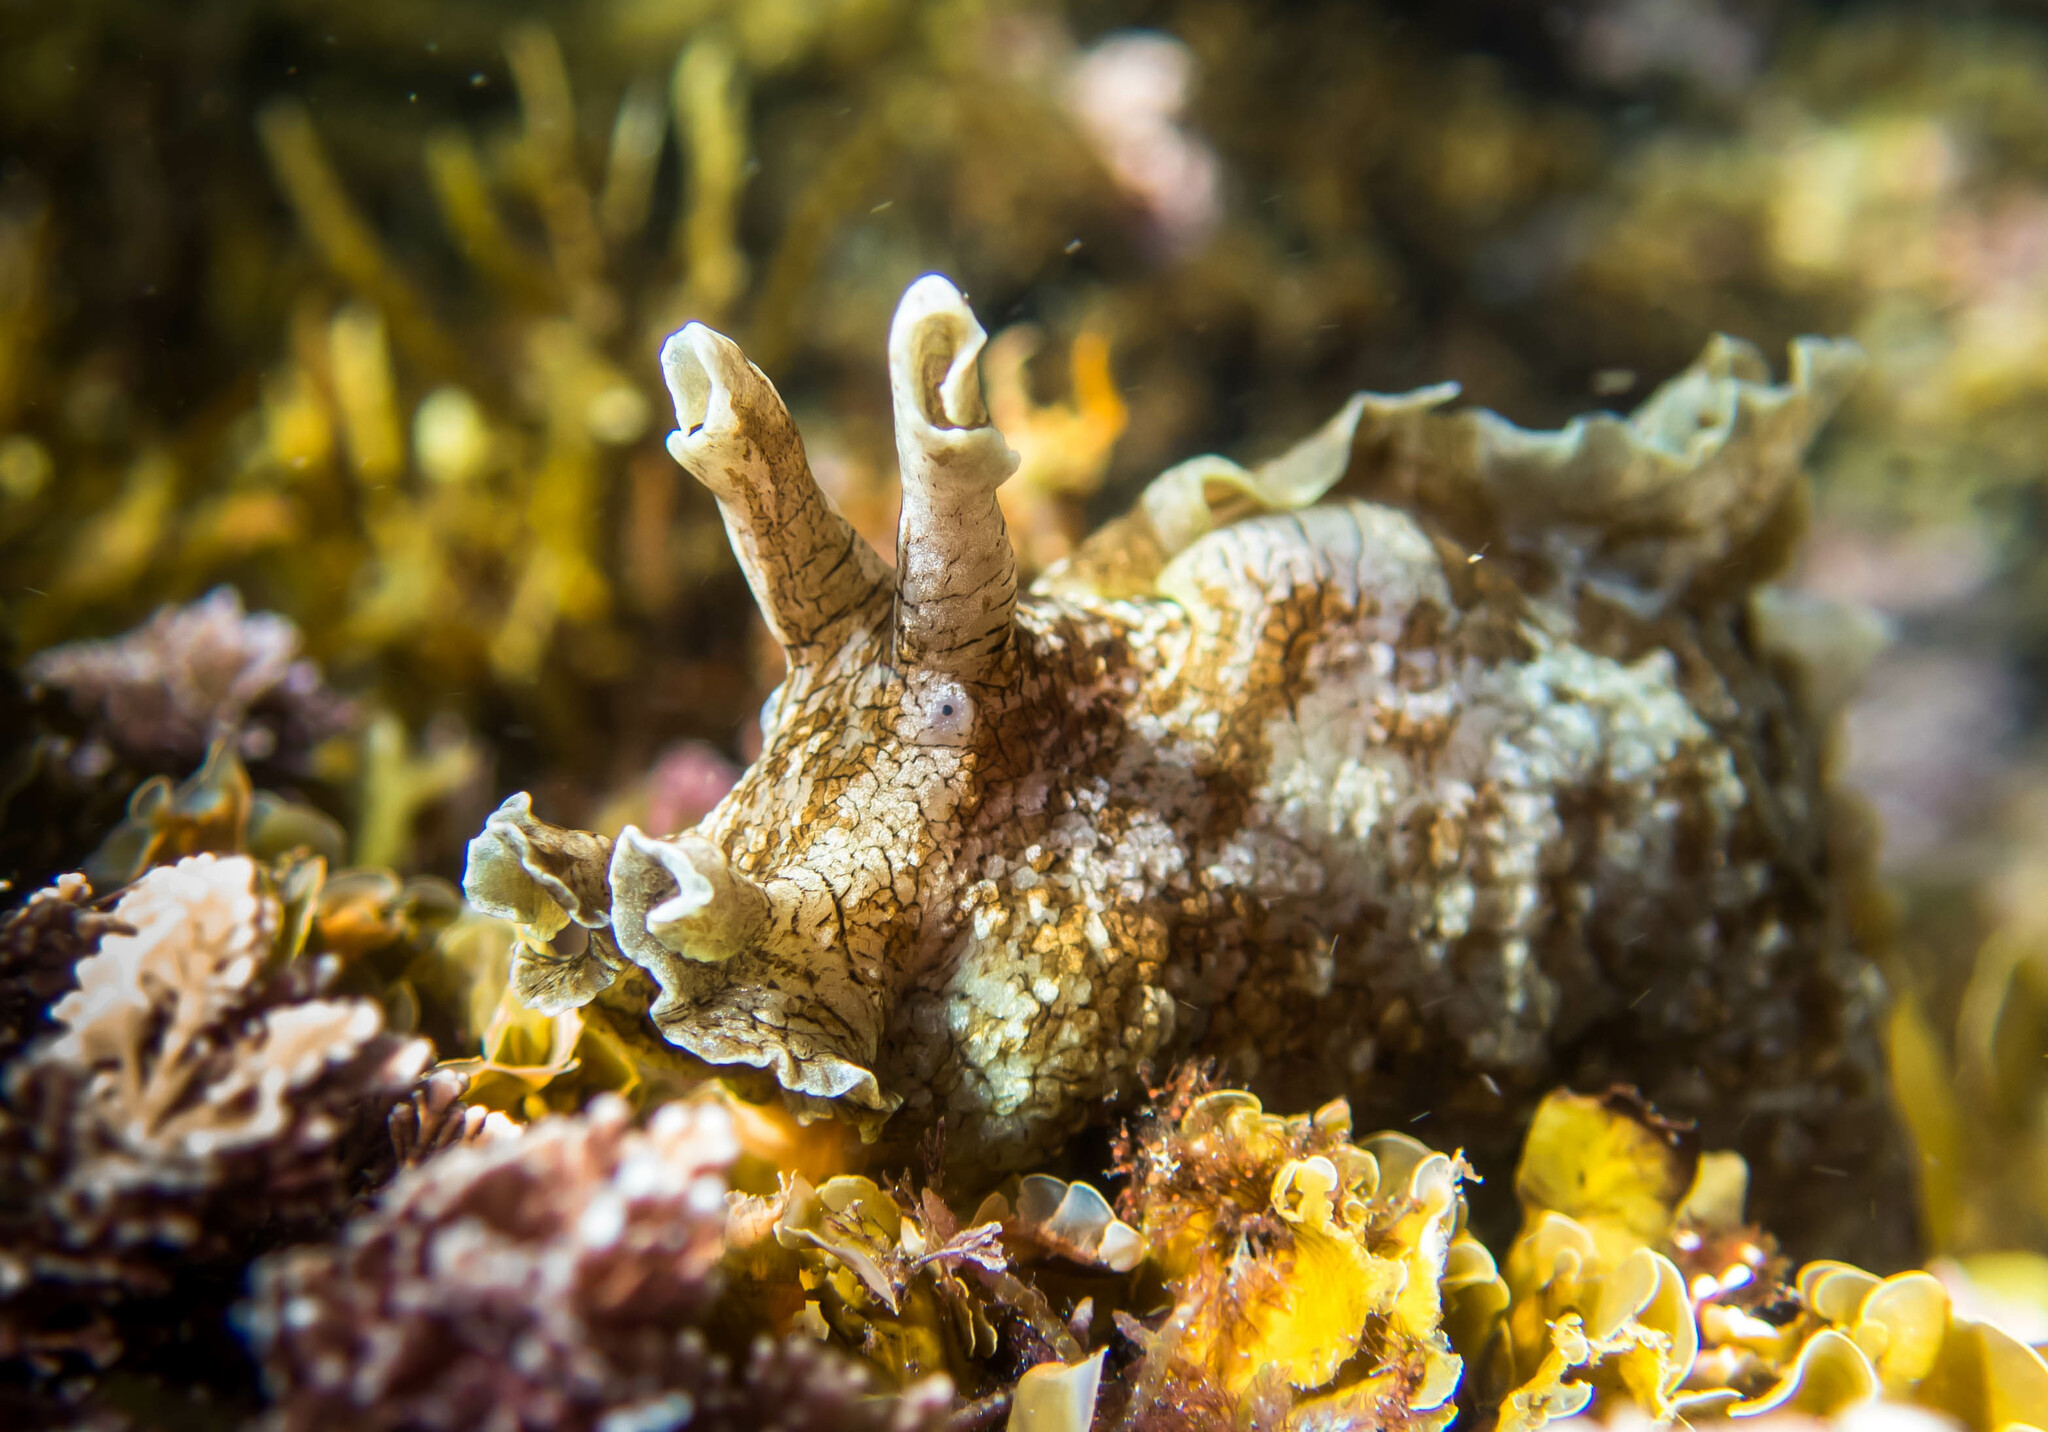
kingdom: Animalia
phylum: Mollusca
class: Gastropoda
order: Aplysiida
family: Aplysiidae
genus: Aplysia
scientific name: Aplysia sydneyensis
